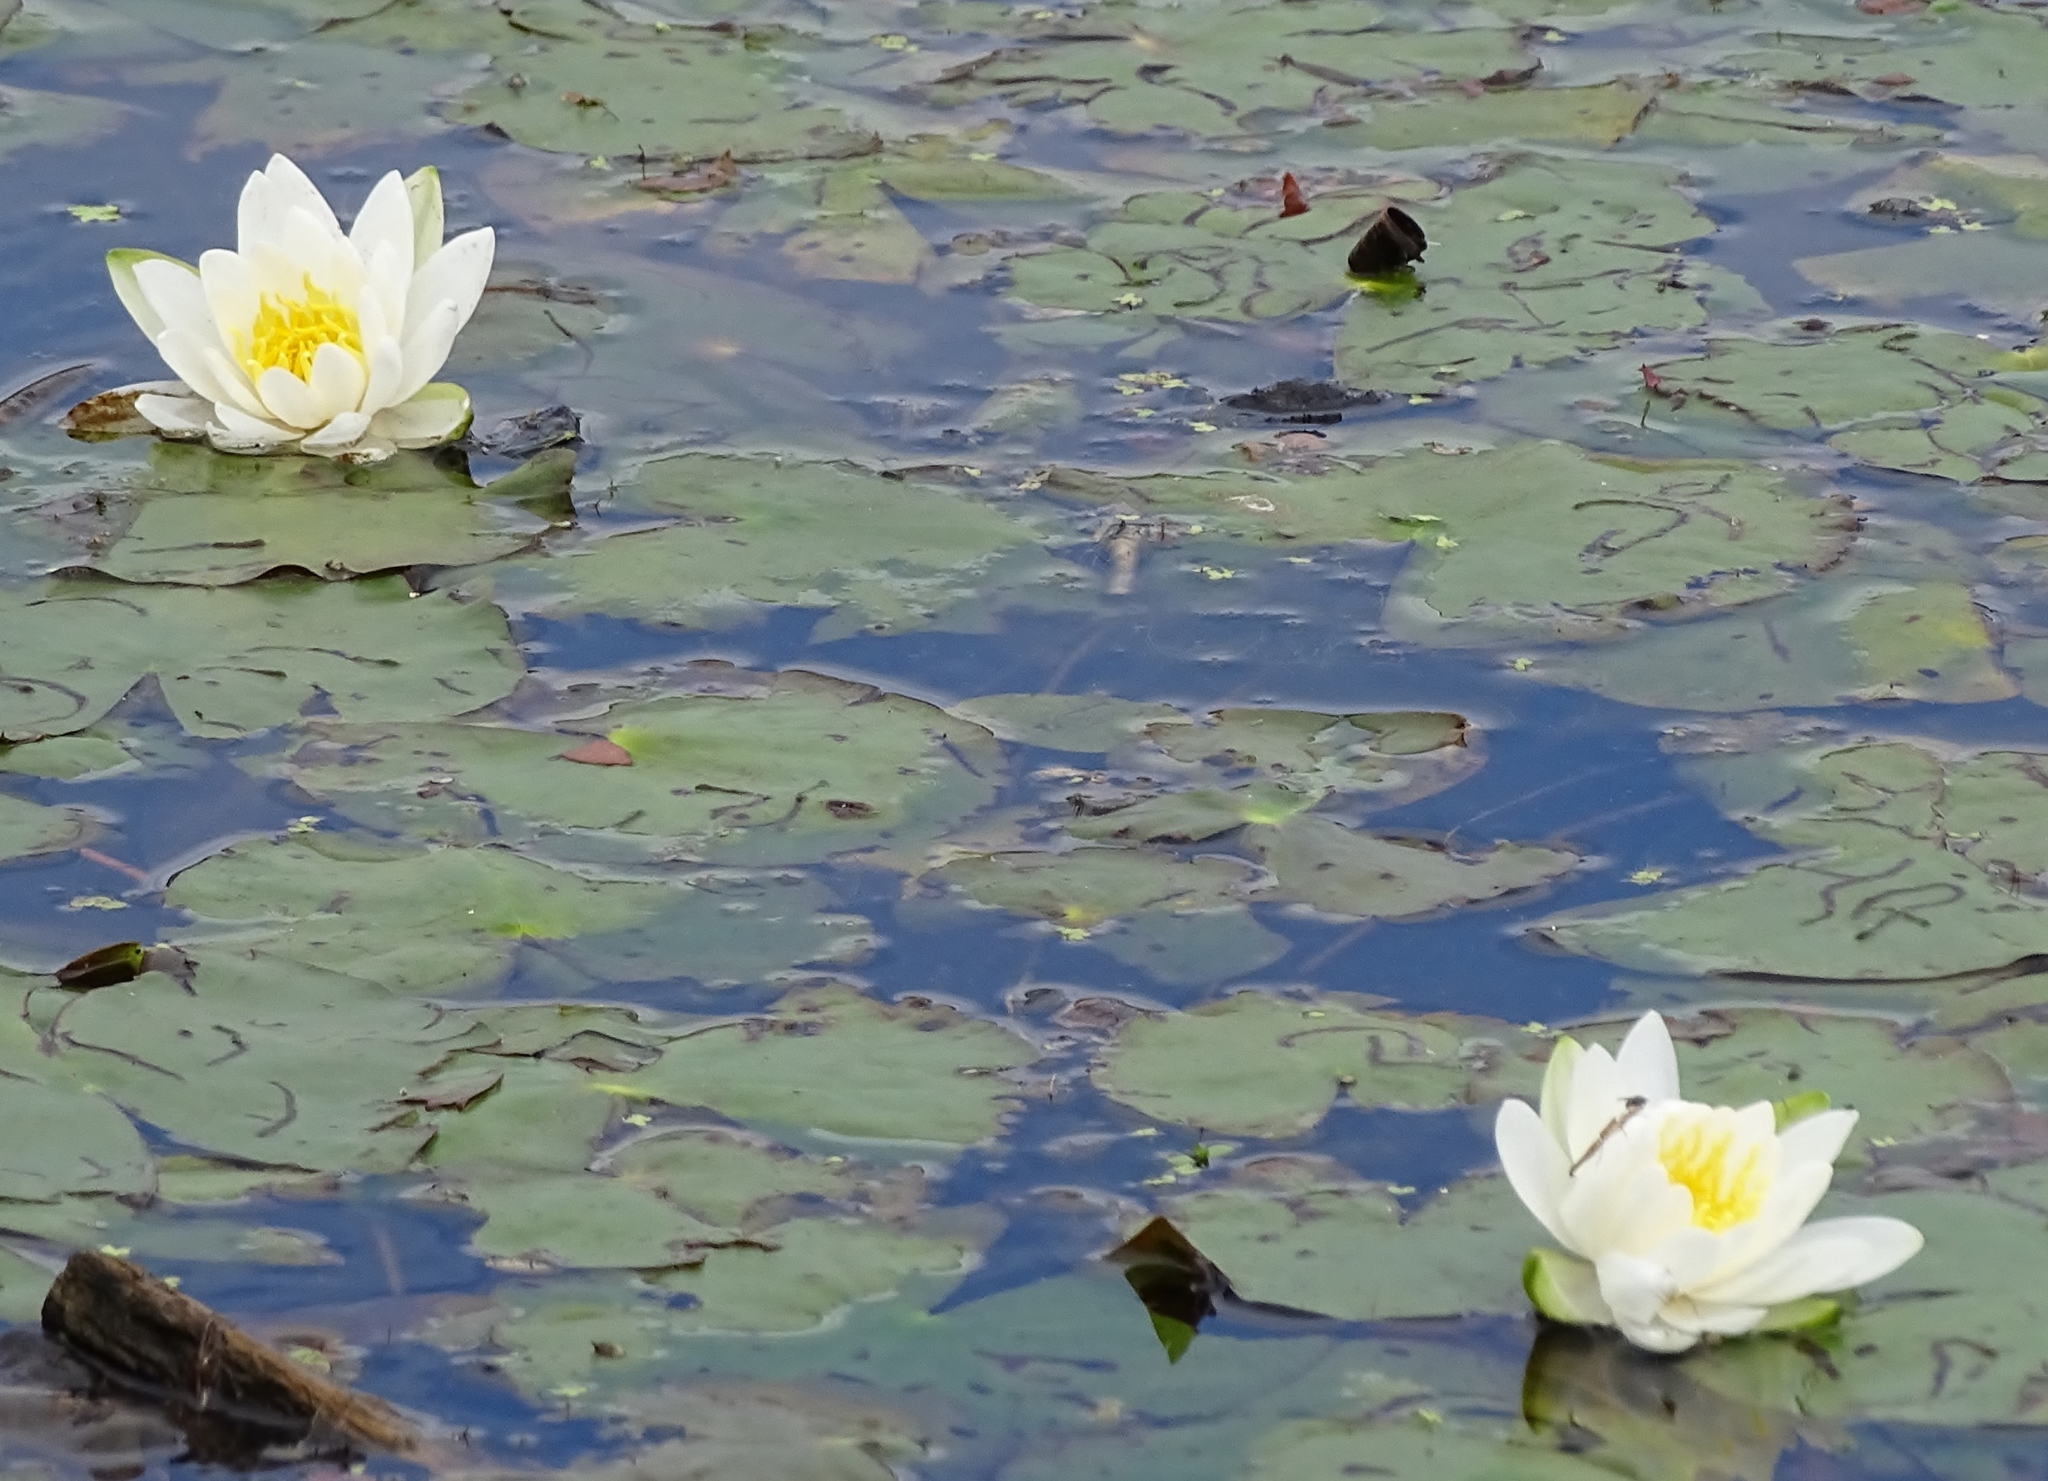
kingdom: Plantae
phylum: Tracheophyta
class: Magnoliopsida
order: Nymphaeales
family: Nymphaeaceae
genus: Nymphaea
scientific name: Nymphaea odorata
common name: Fragrant water-lily
